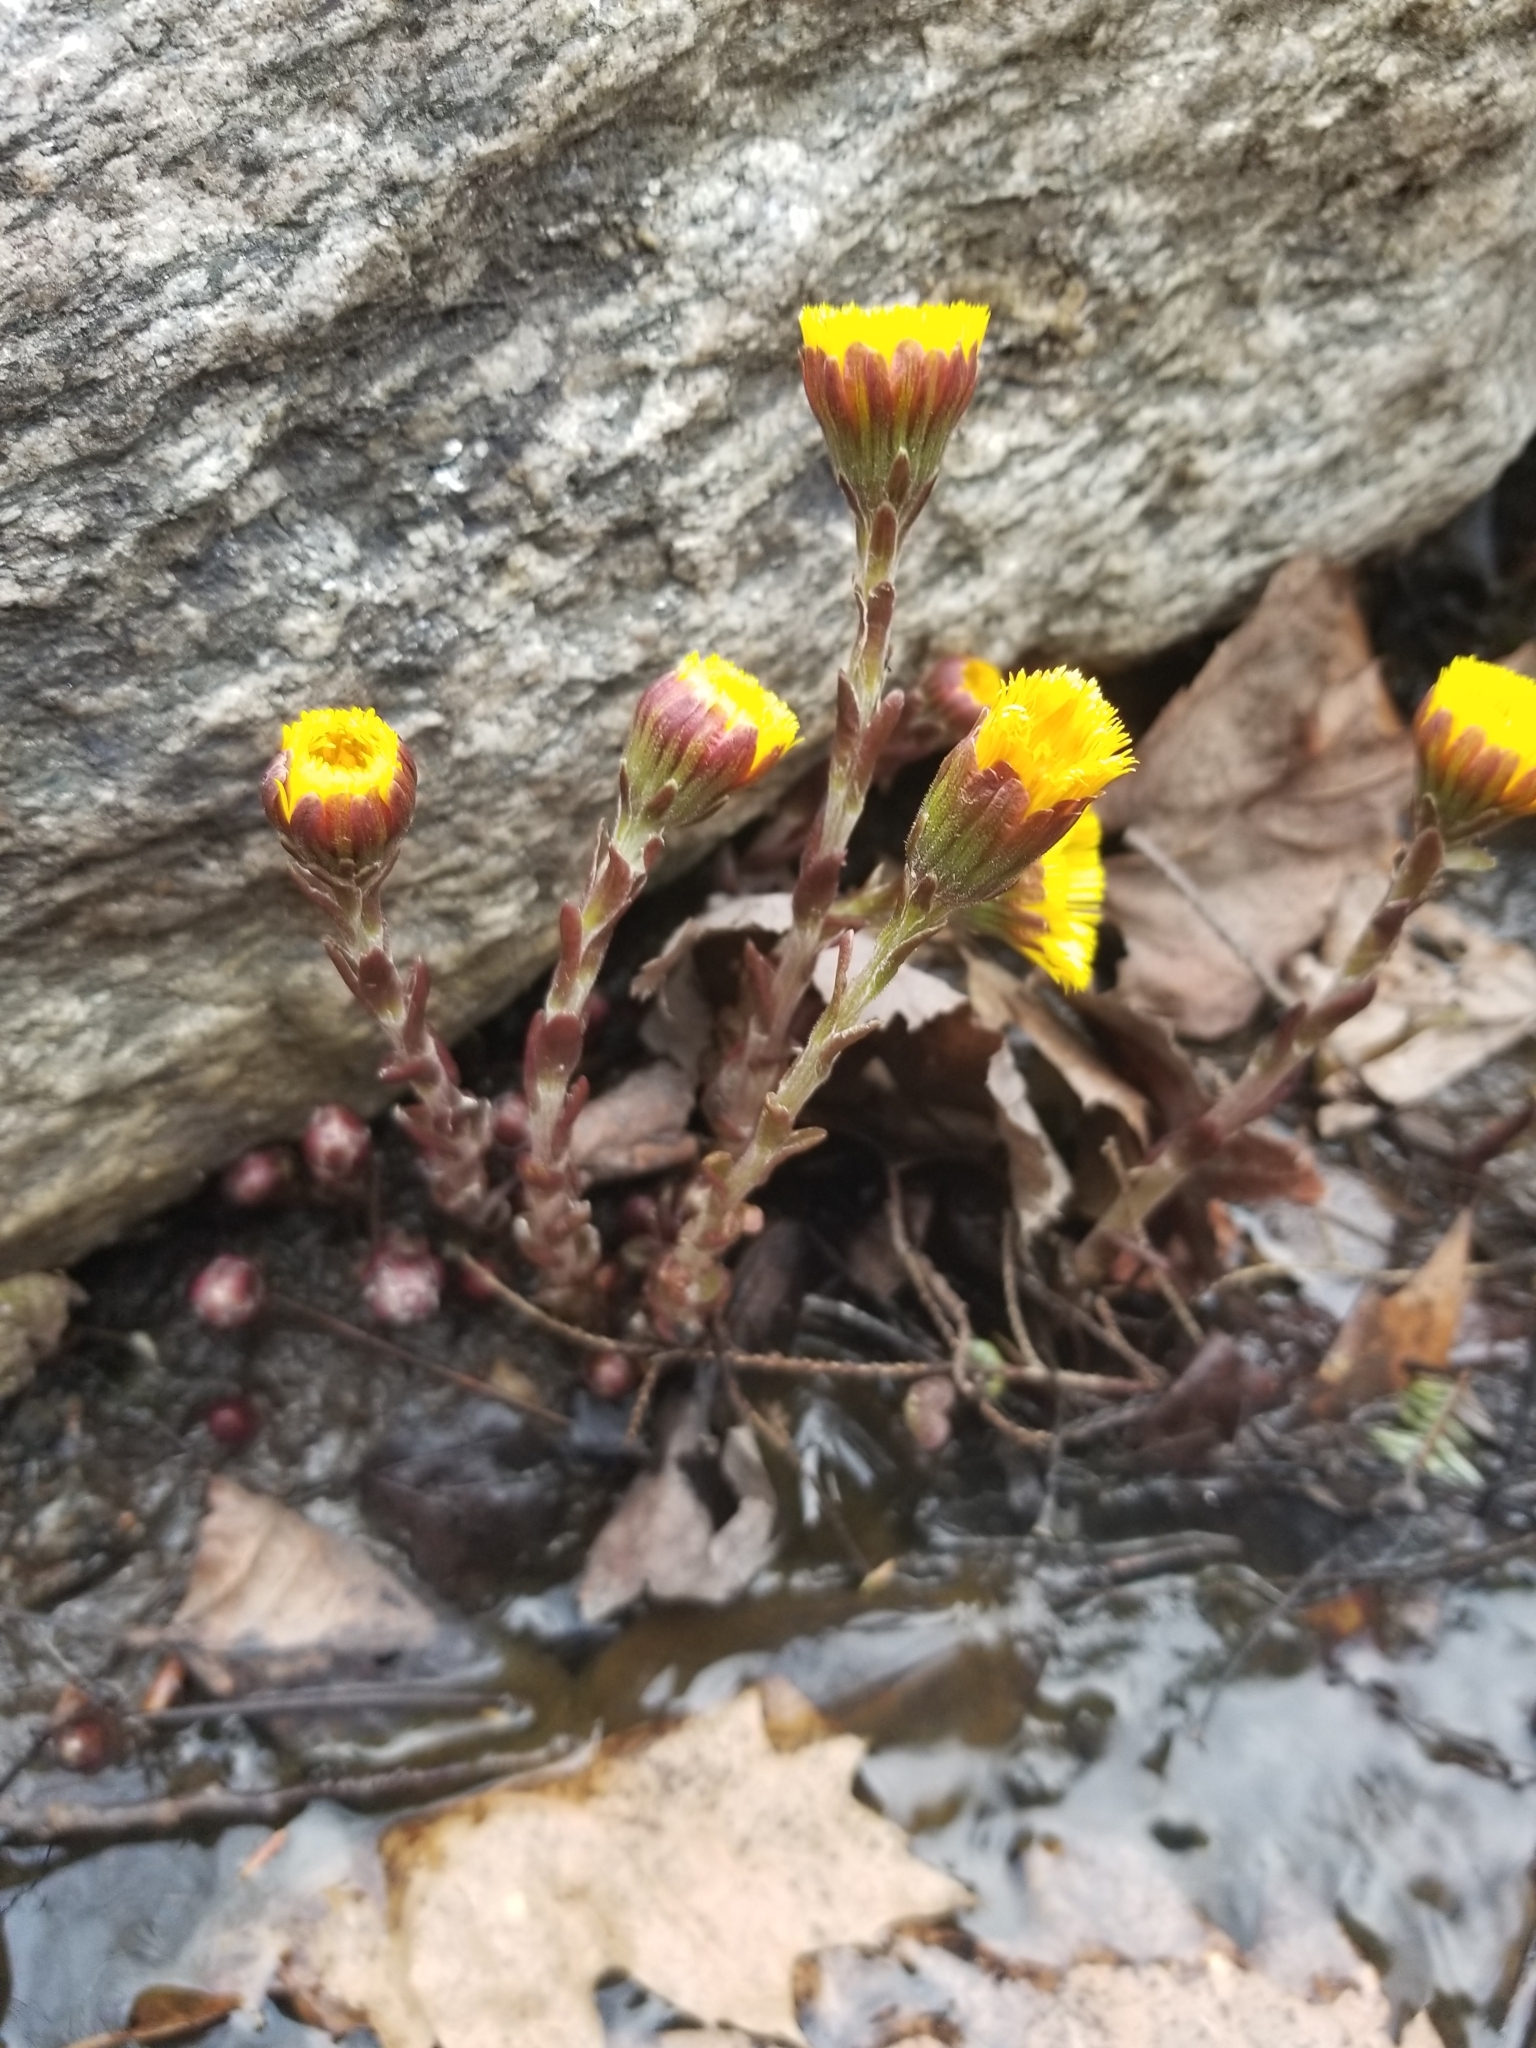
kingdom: Plantae
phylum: Tracheophyta
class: Magnoliopsida
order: Asterales
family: Asteraceae
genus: Tussilago
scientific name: Tussilago farfara
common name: Coltsfoot
